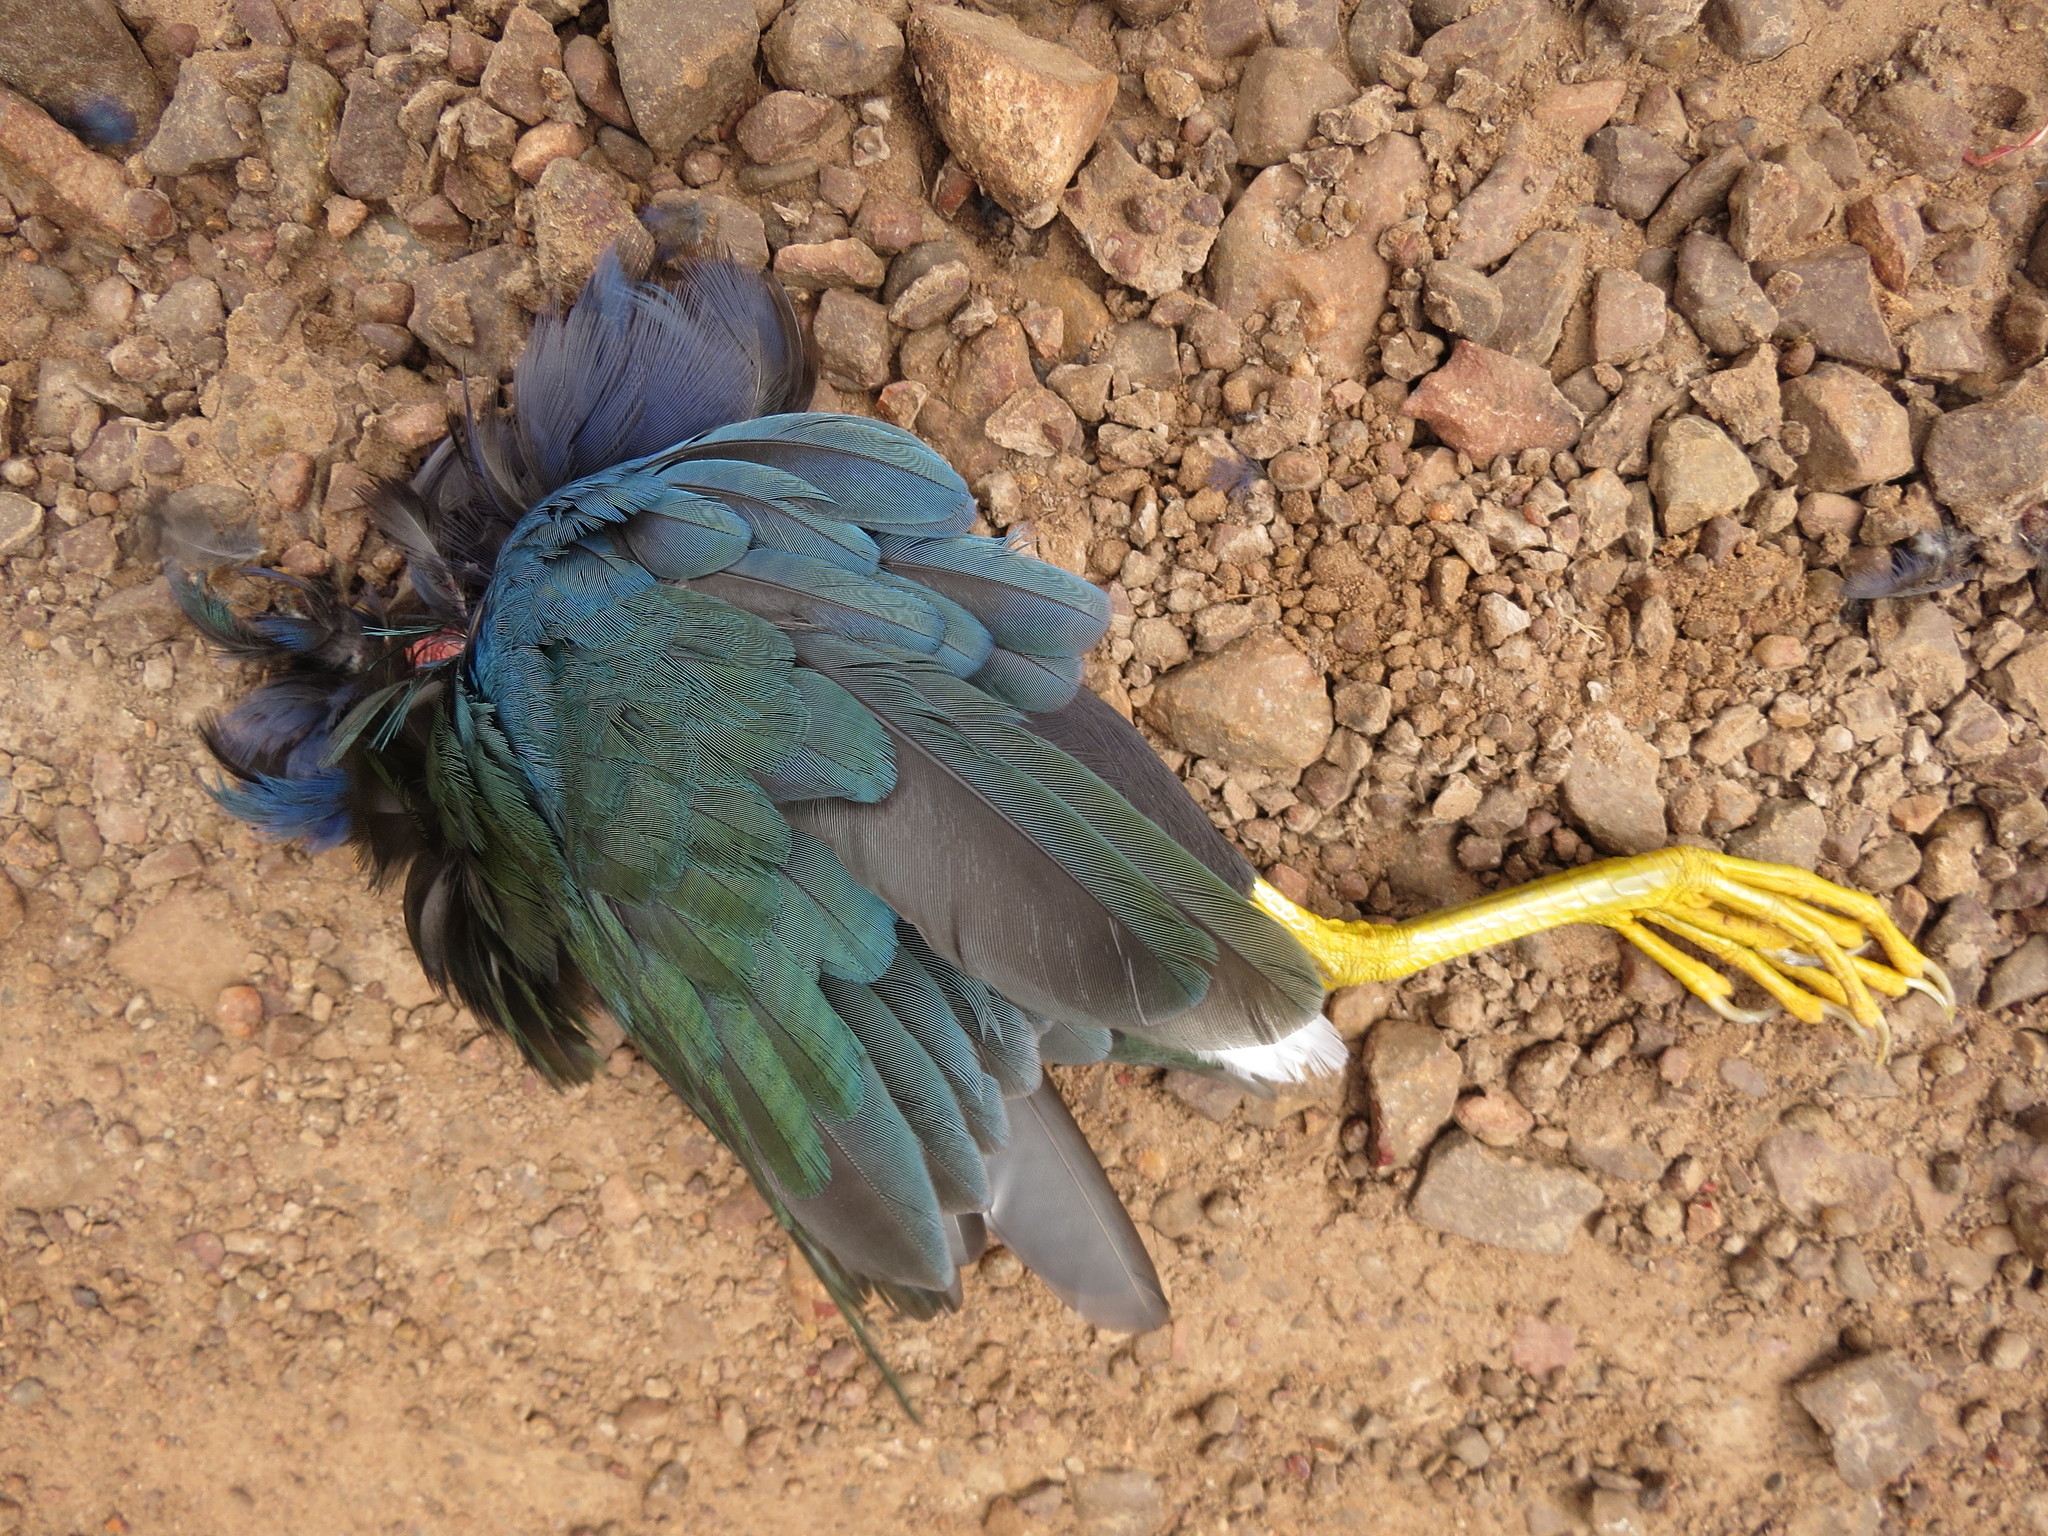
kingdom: Animalia
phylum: Chordata
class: Aves
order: Gruiformes
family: Rallidae
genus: Porphyrio
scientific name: Porphyrio martinica
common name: Purple gallinule
